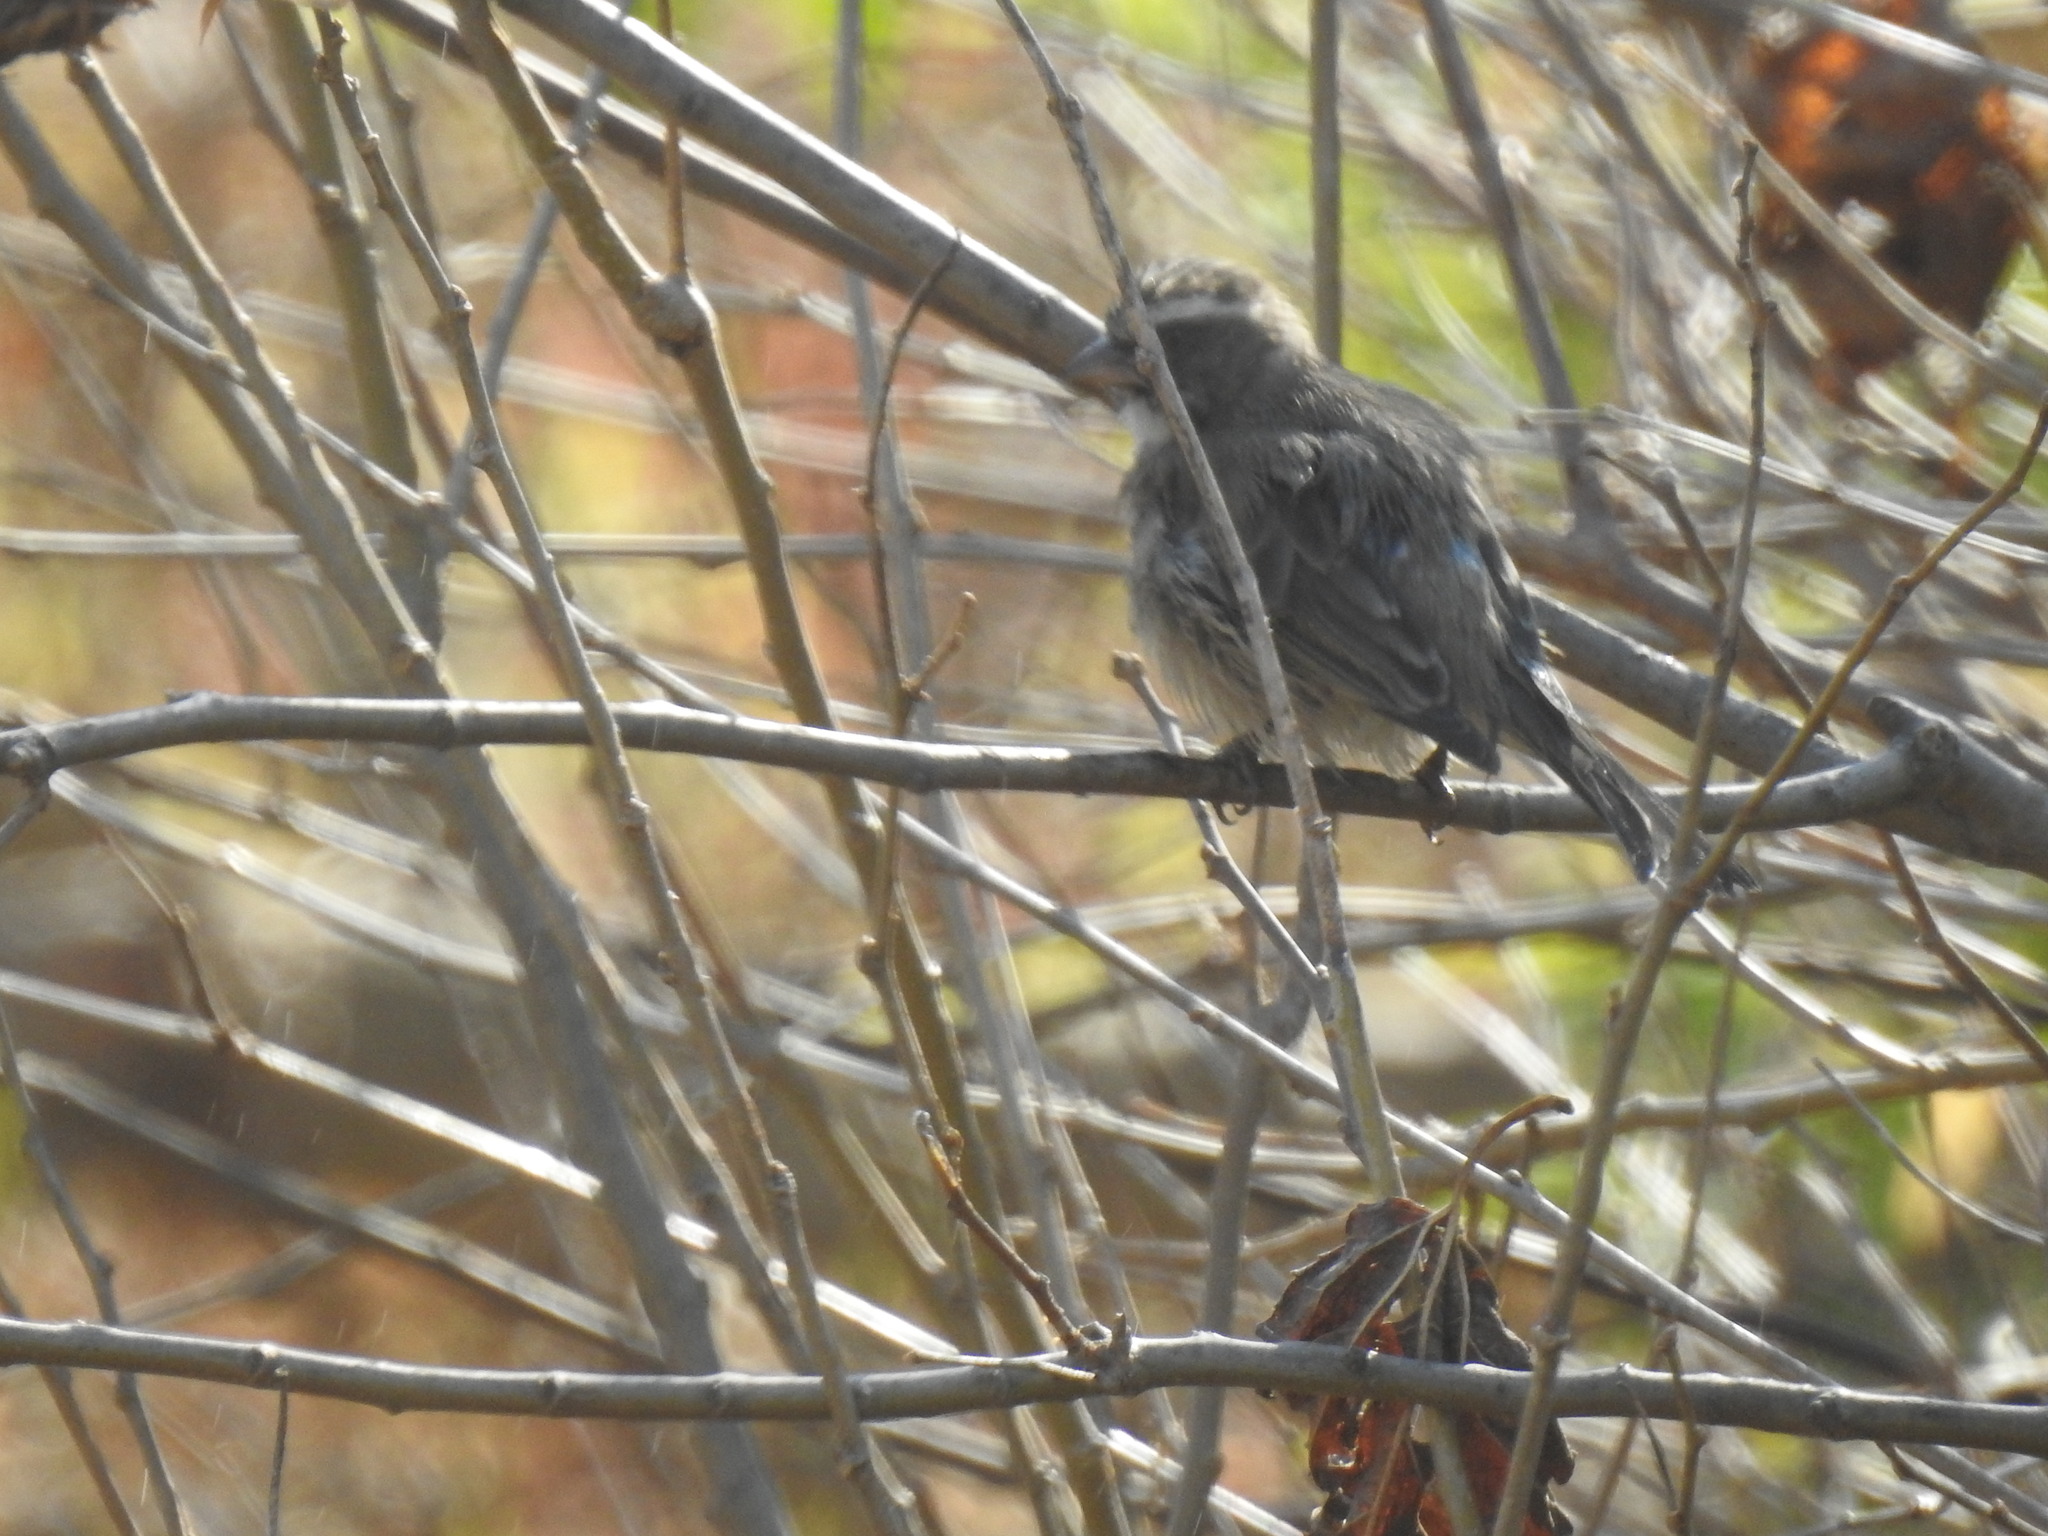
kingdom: Animalia
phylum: Chordata
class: Aves
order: Passeriformes
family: Fringillidae
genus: Crithagra
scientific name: Crithagra gularis
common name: Streaky-headed seedeater
